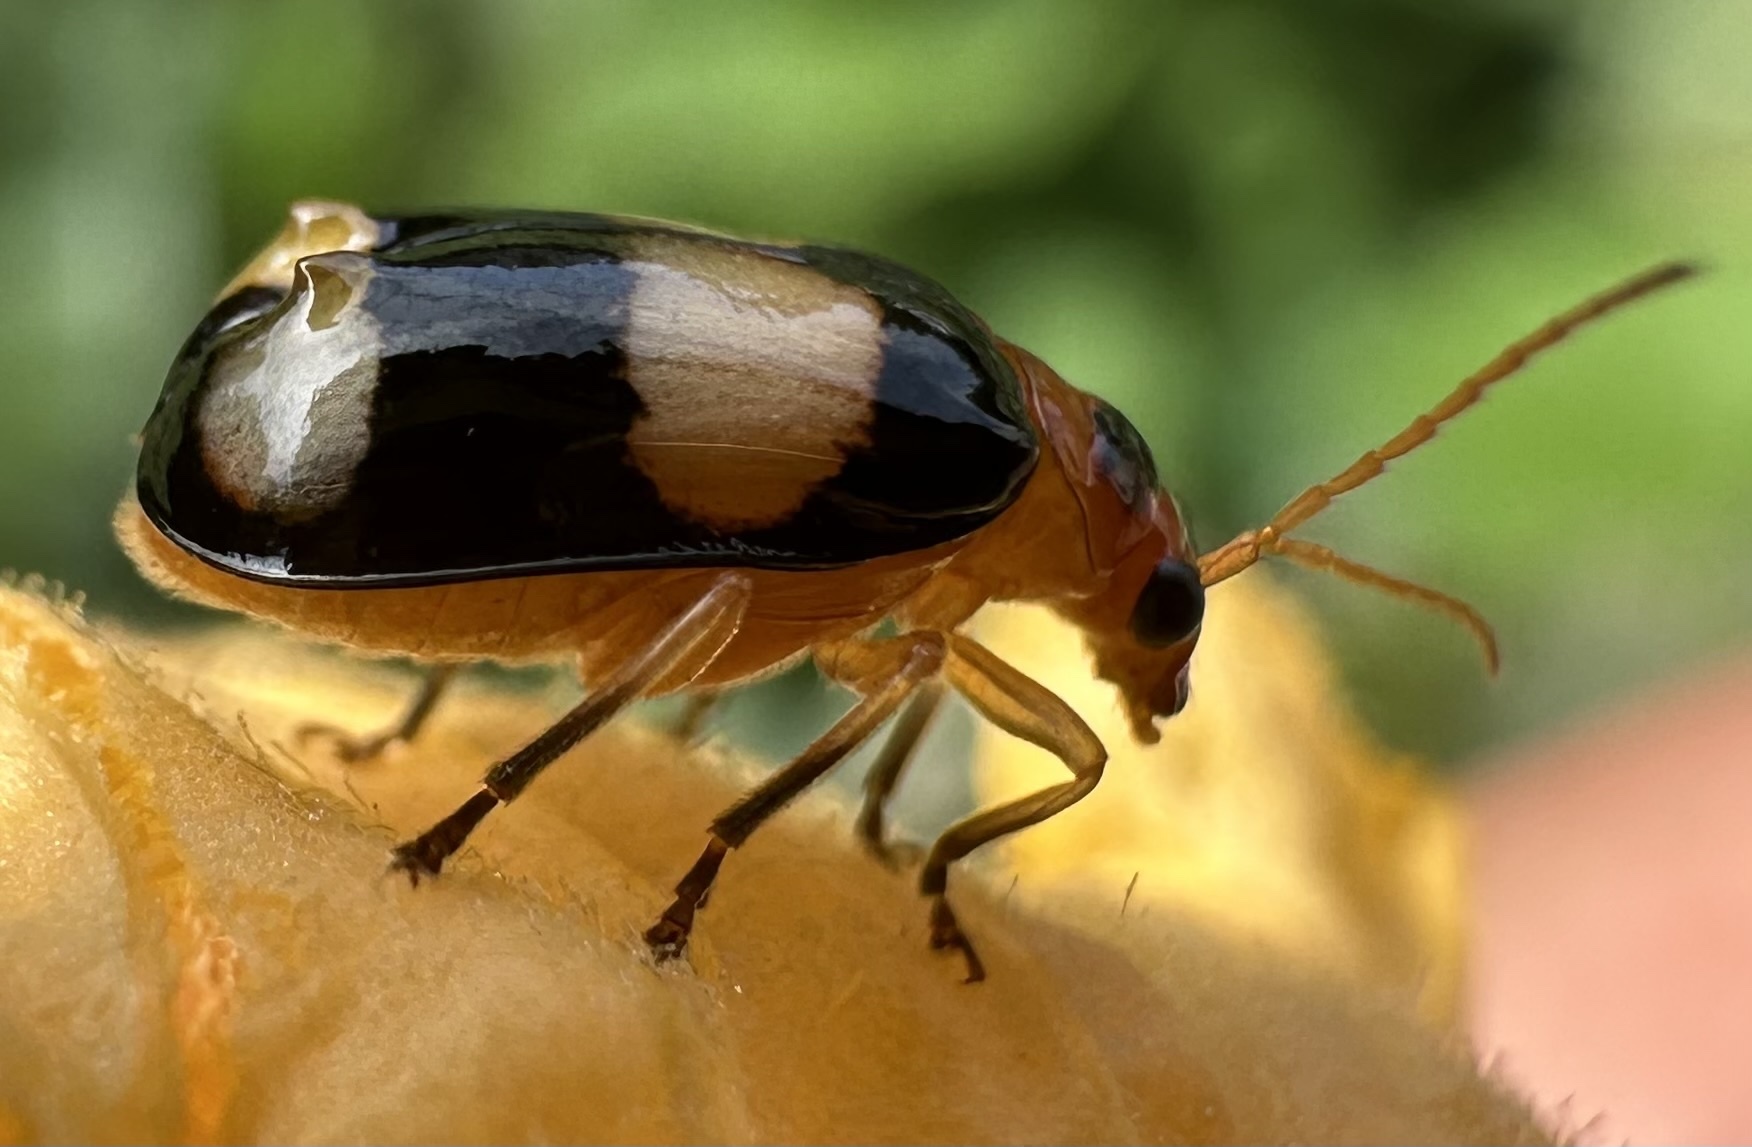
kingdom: Animalia
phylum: Arthropoda
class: Insecta
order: Coleoptera
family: Chrysomelidae
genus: Diacantha
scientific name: Diacantha
